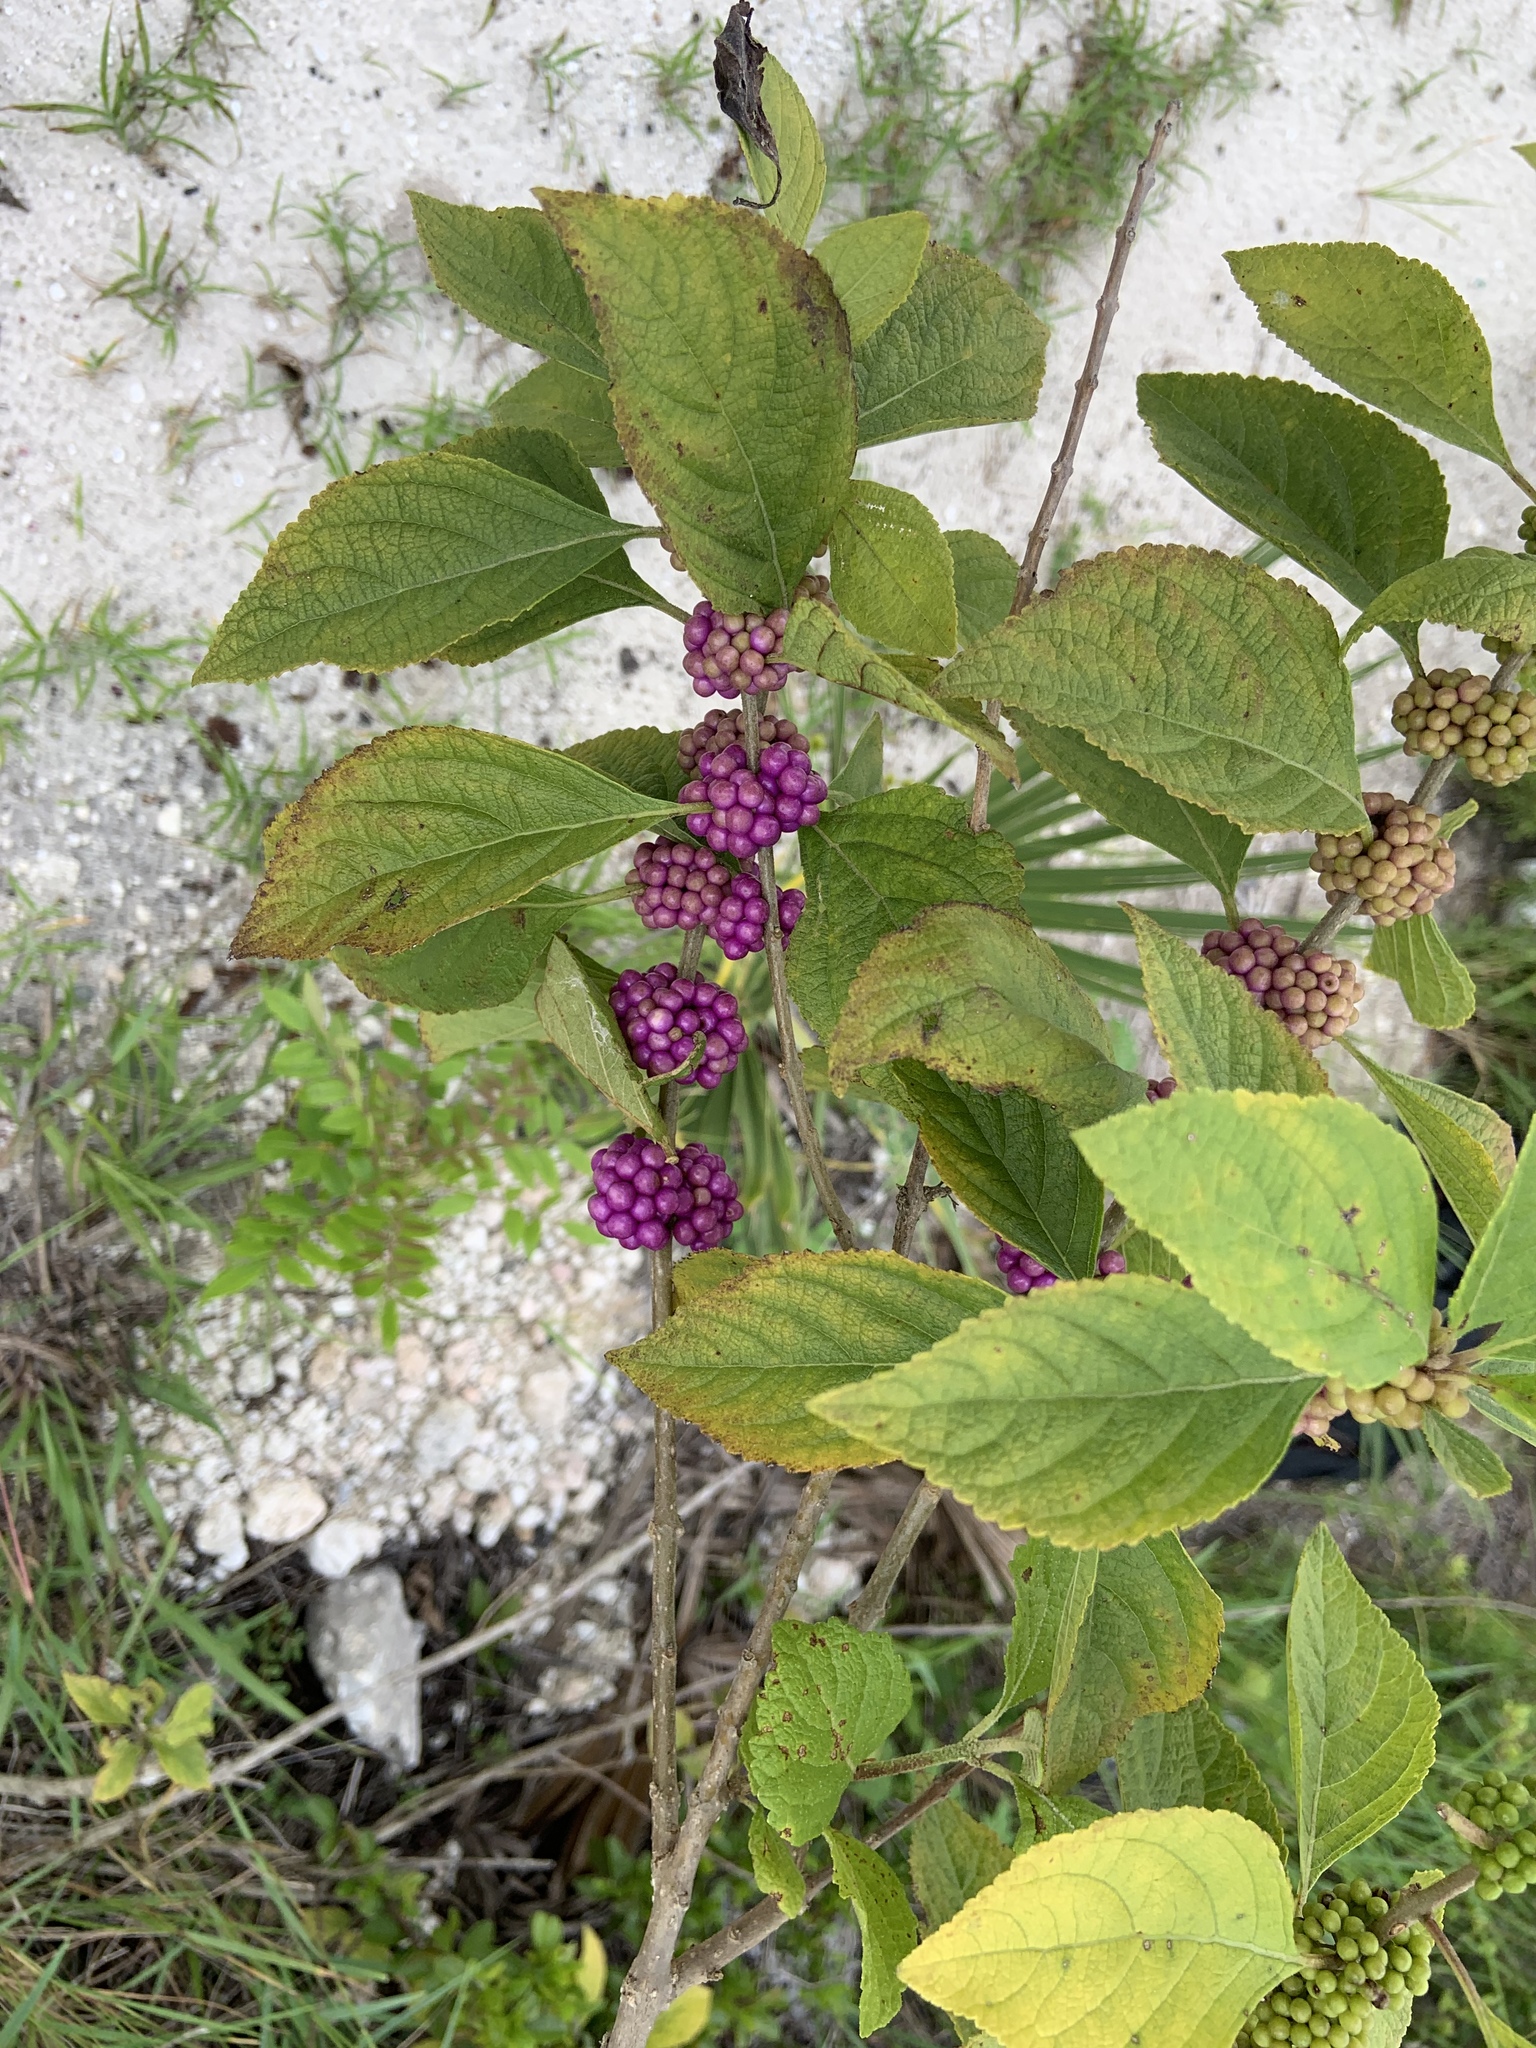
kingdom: Plantae
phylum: Tracheophyta
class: Magnoliopsida
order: Lamiales
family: Lamiaceae
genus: Callicarpa
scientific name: Callicarpa americana
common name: American beautyberry
